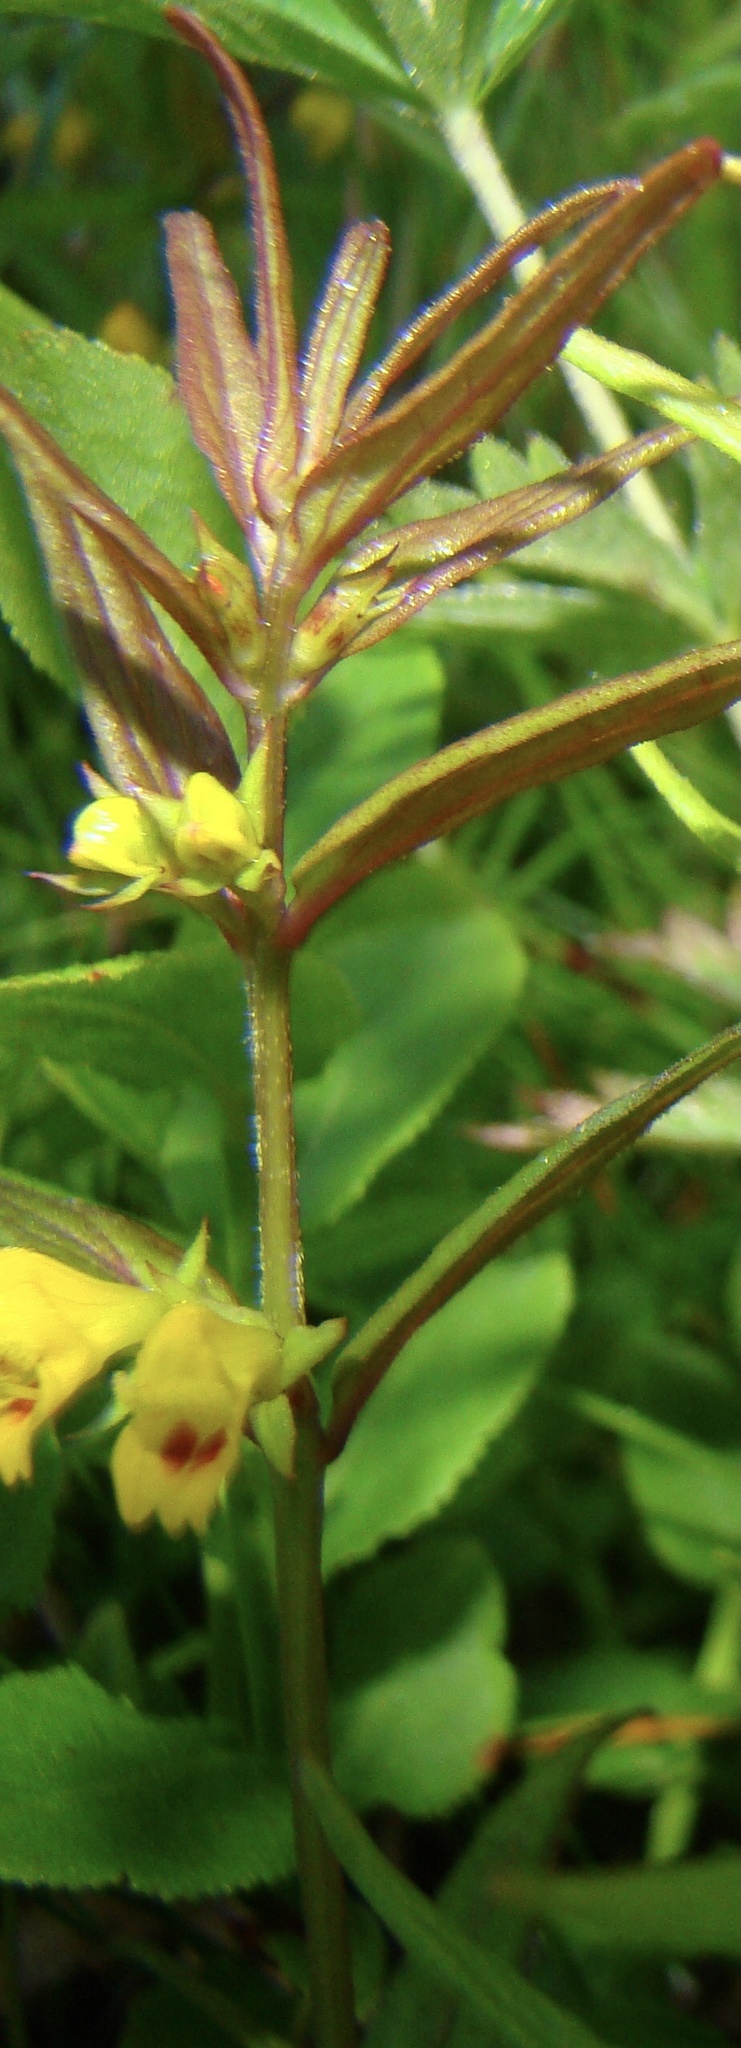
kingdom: Plantae
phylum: Tracheophyta
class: Magnoliopsida
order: Lamiales
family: Orobanchaceae
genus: Melampyrum
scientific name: Melampyrum sylvaticum
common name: Small cow-wheat
